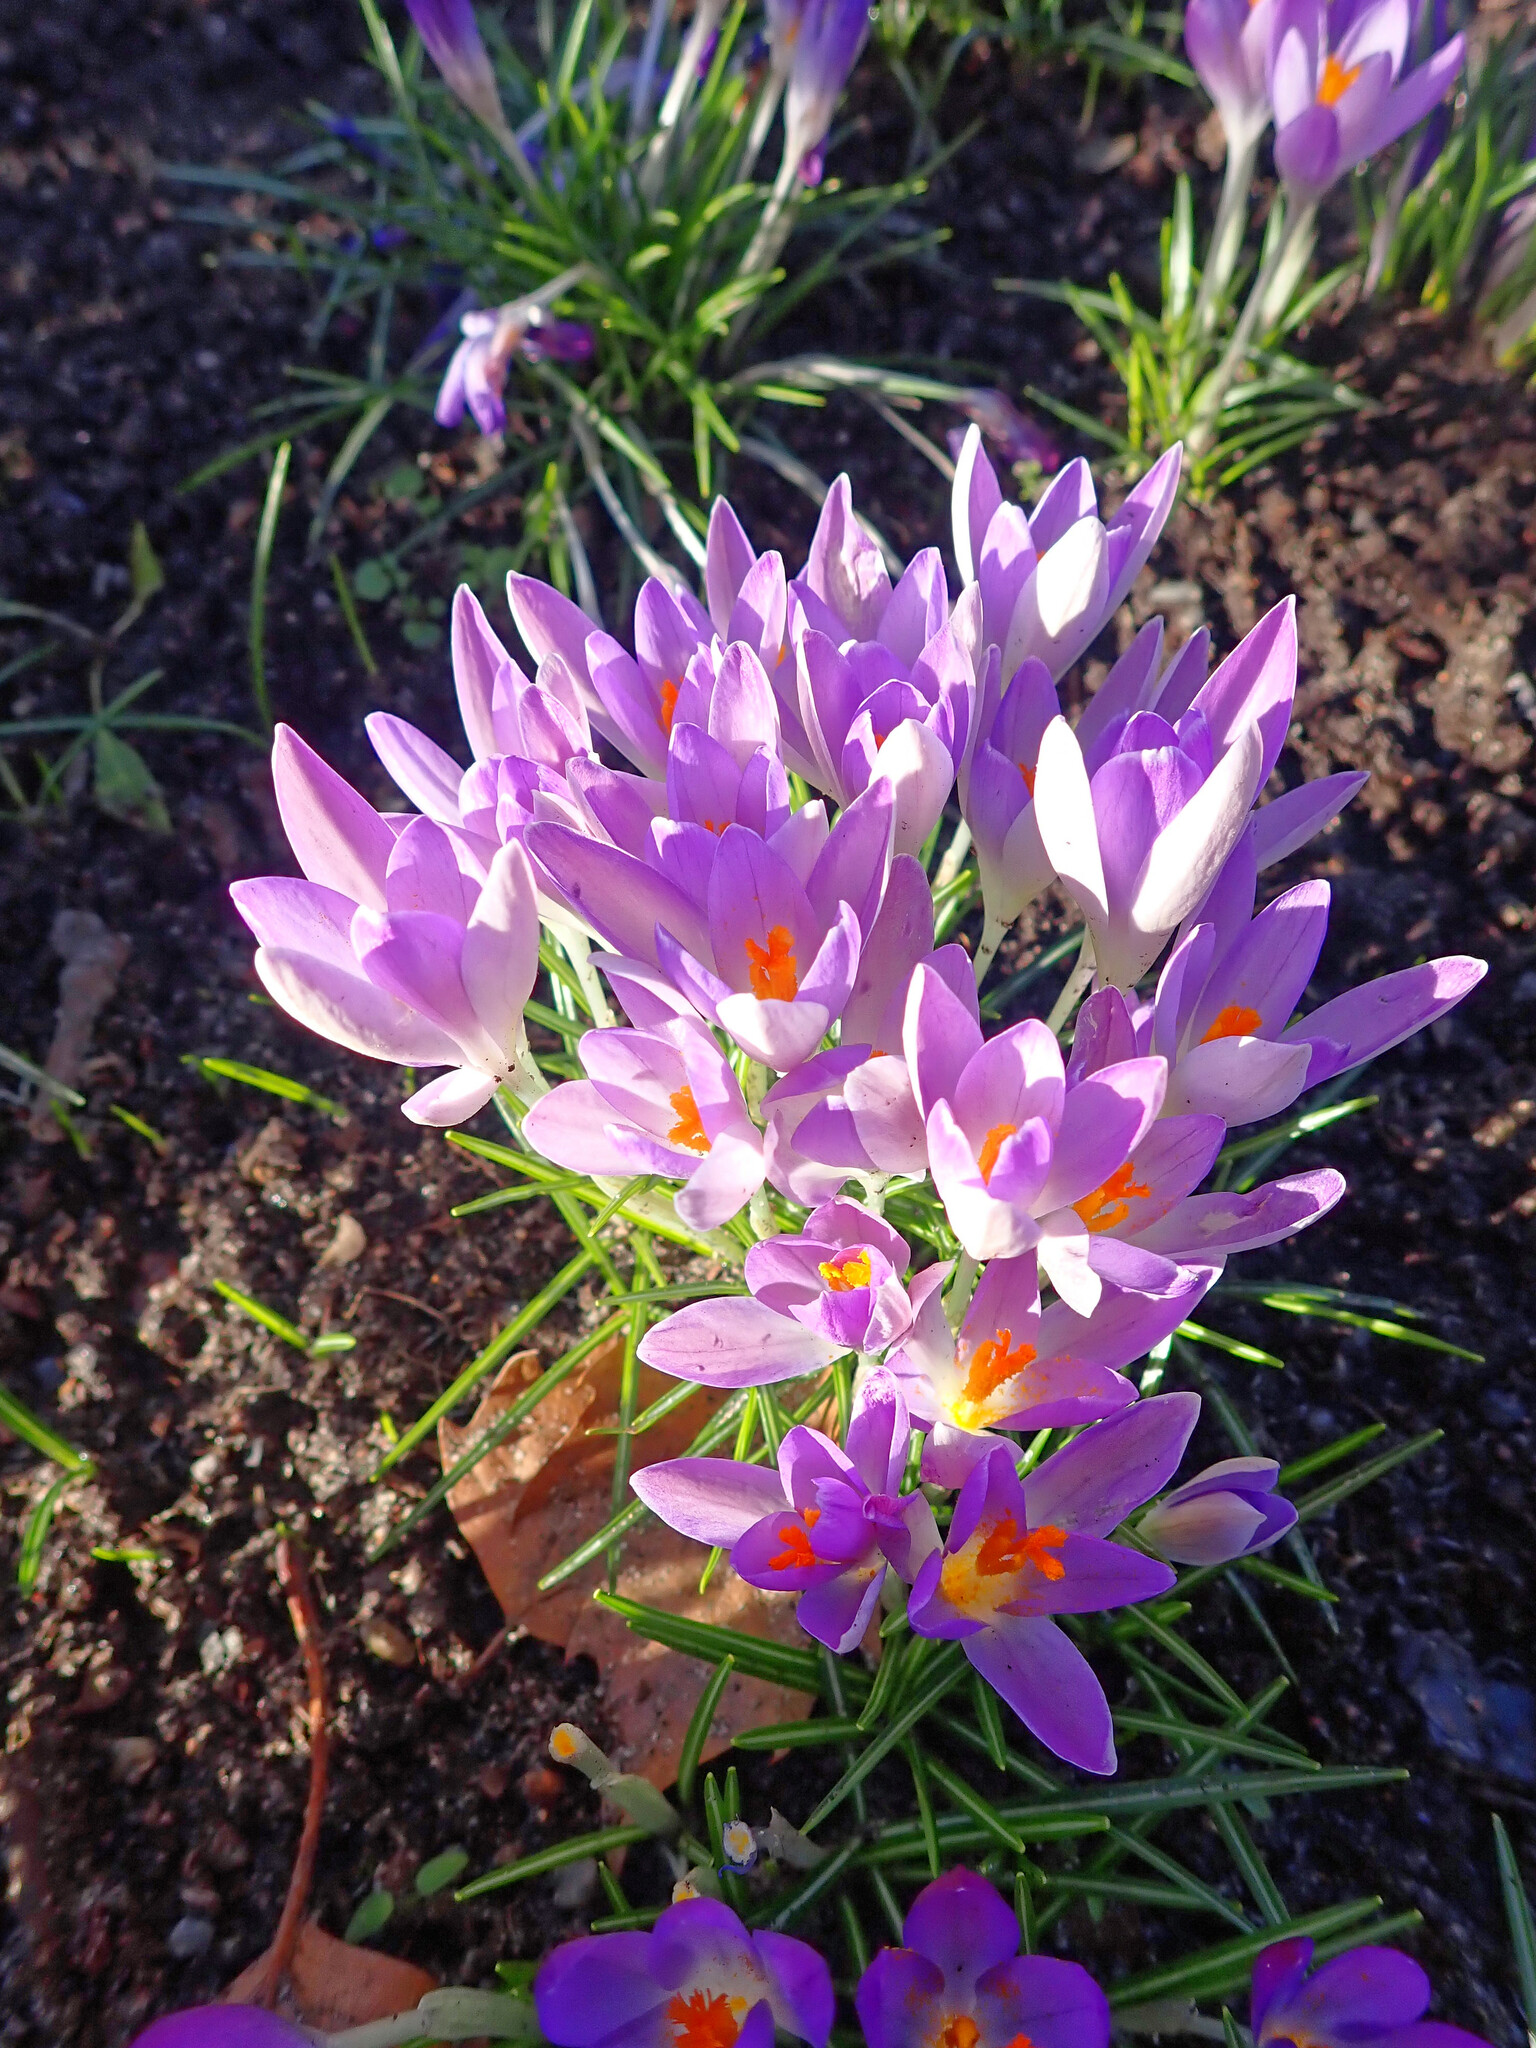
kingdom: Plantae
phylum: Tracheophyta
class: Liliopsida
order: Asparagales
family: Iridaceae
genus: Crocus
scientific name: Crocus tommasinianus
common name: Early crocus
